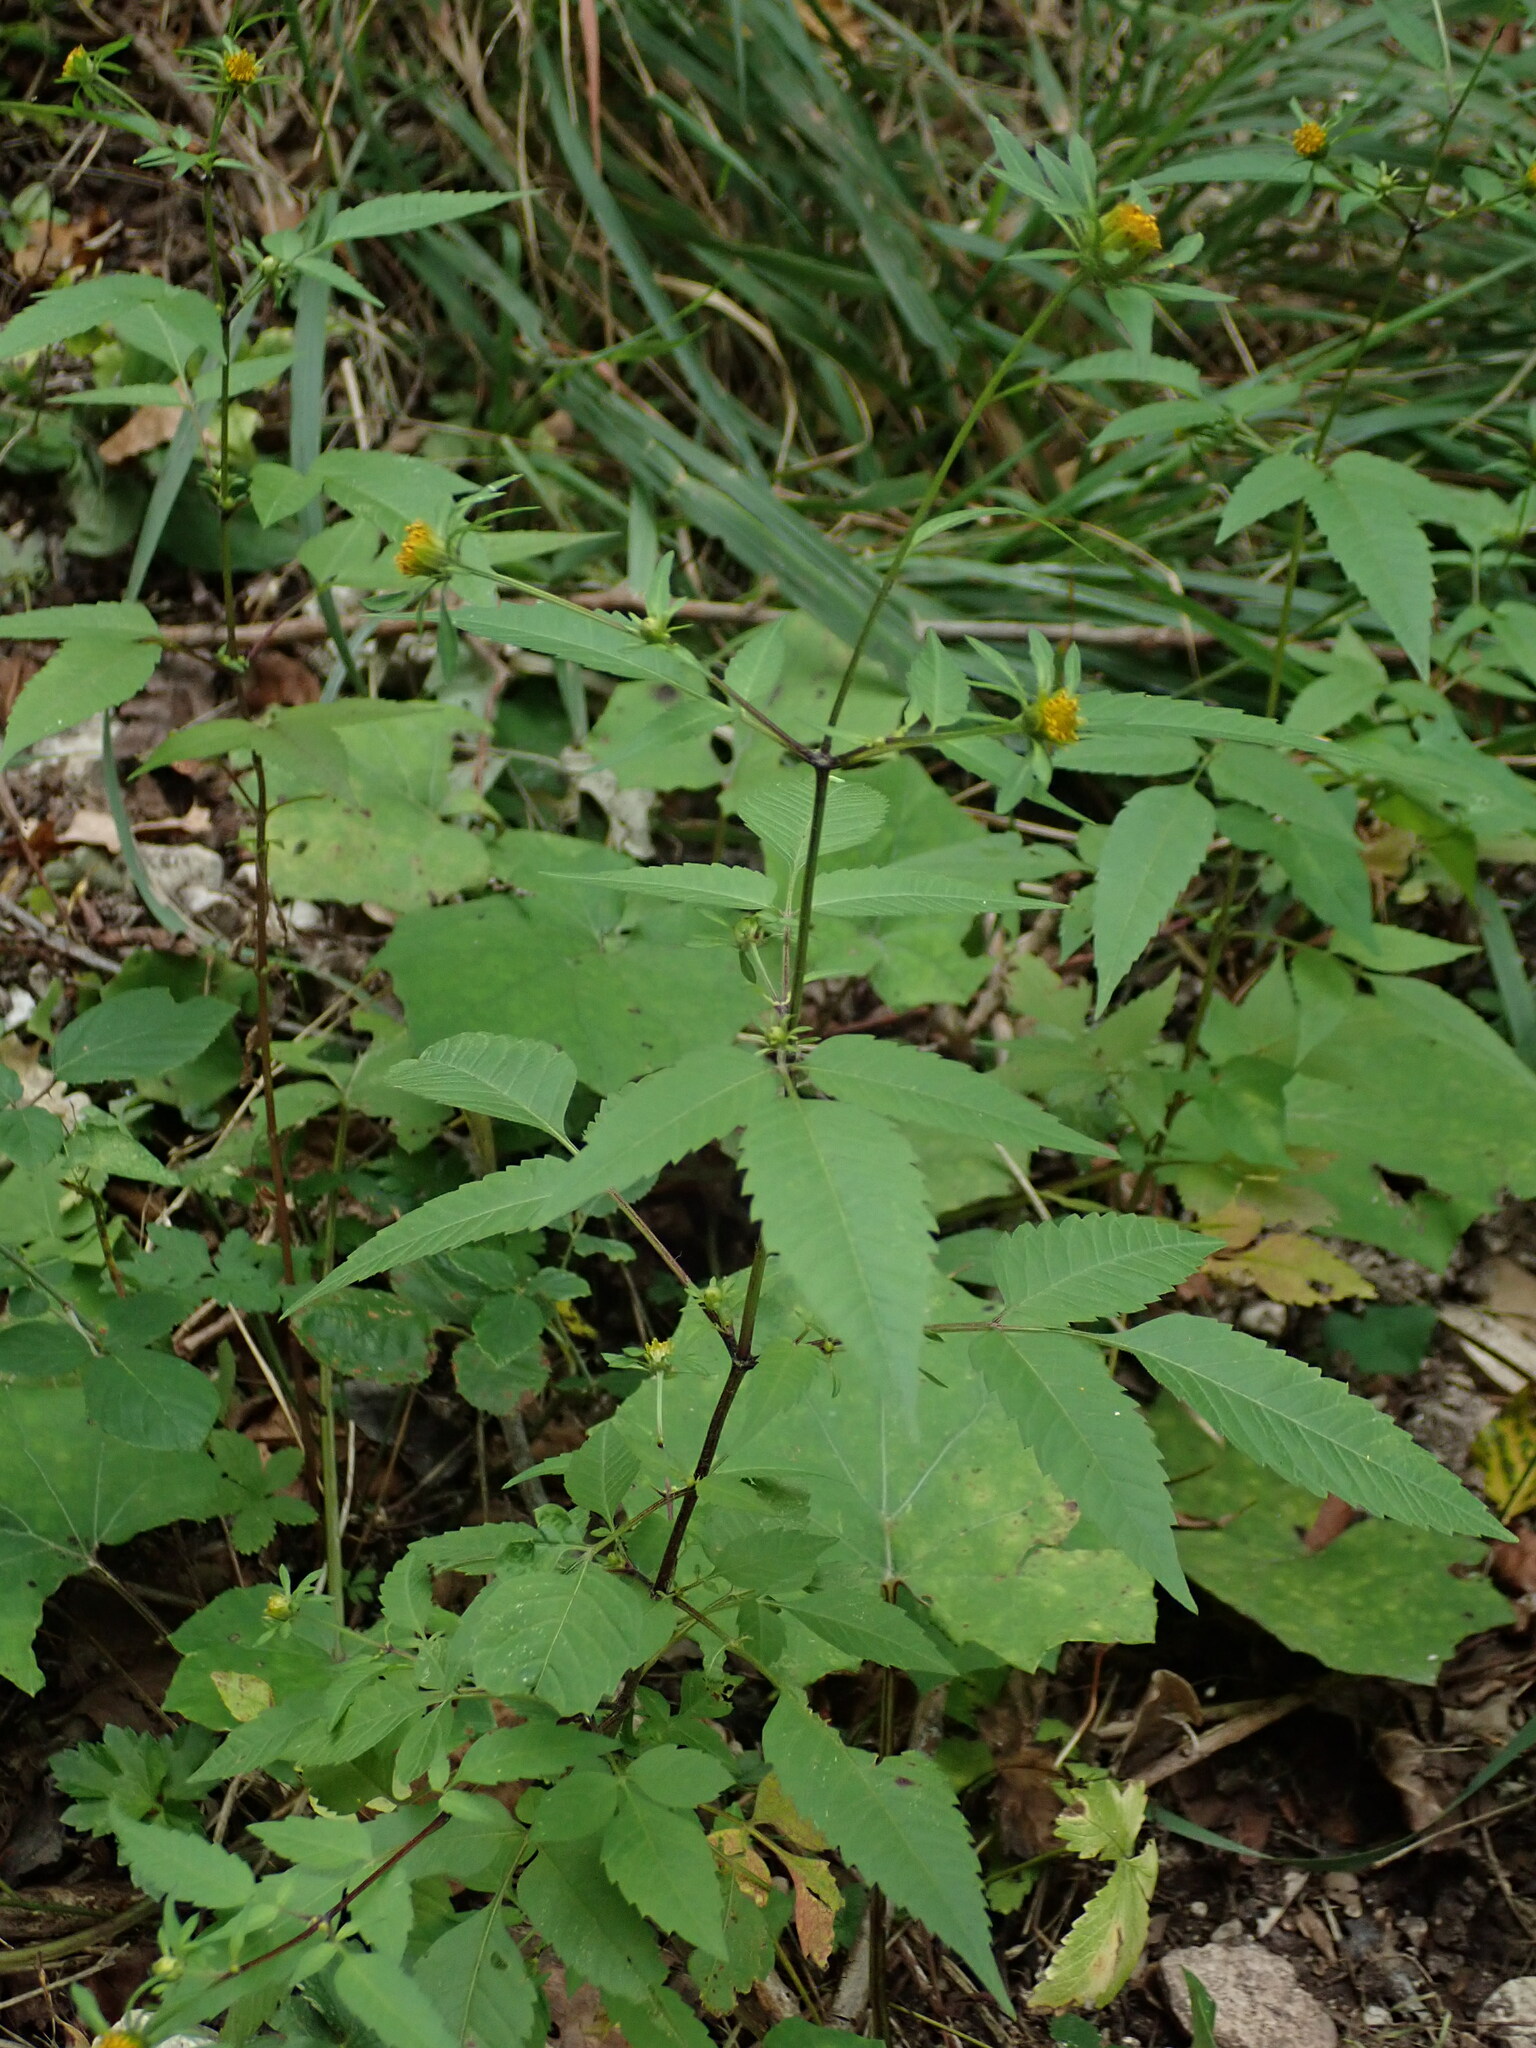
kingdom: Plantae
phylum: Tracheophyta
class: Magnoliopsida
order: Asterales
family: Asteraceae
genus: Bidens
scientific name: Bidens frondosa
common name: Beggarticks
